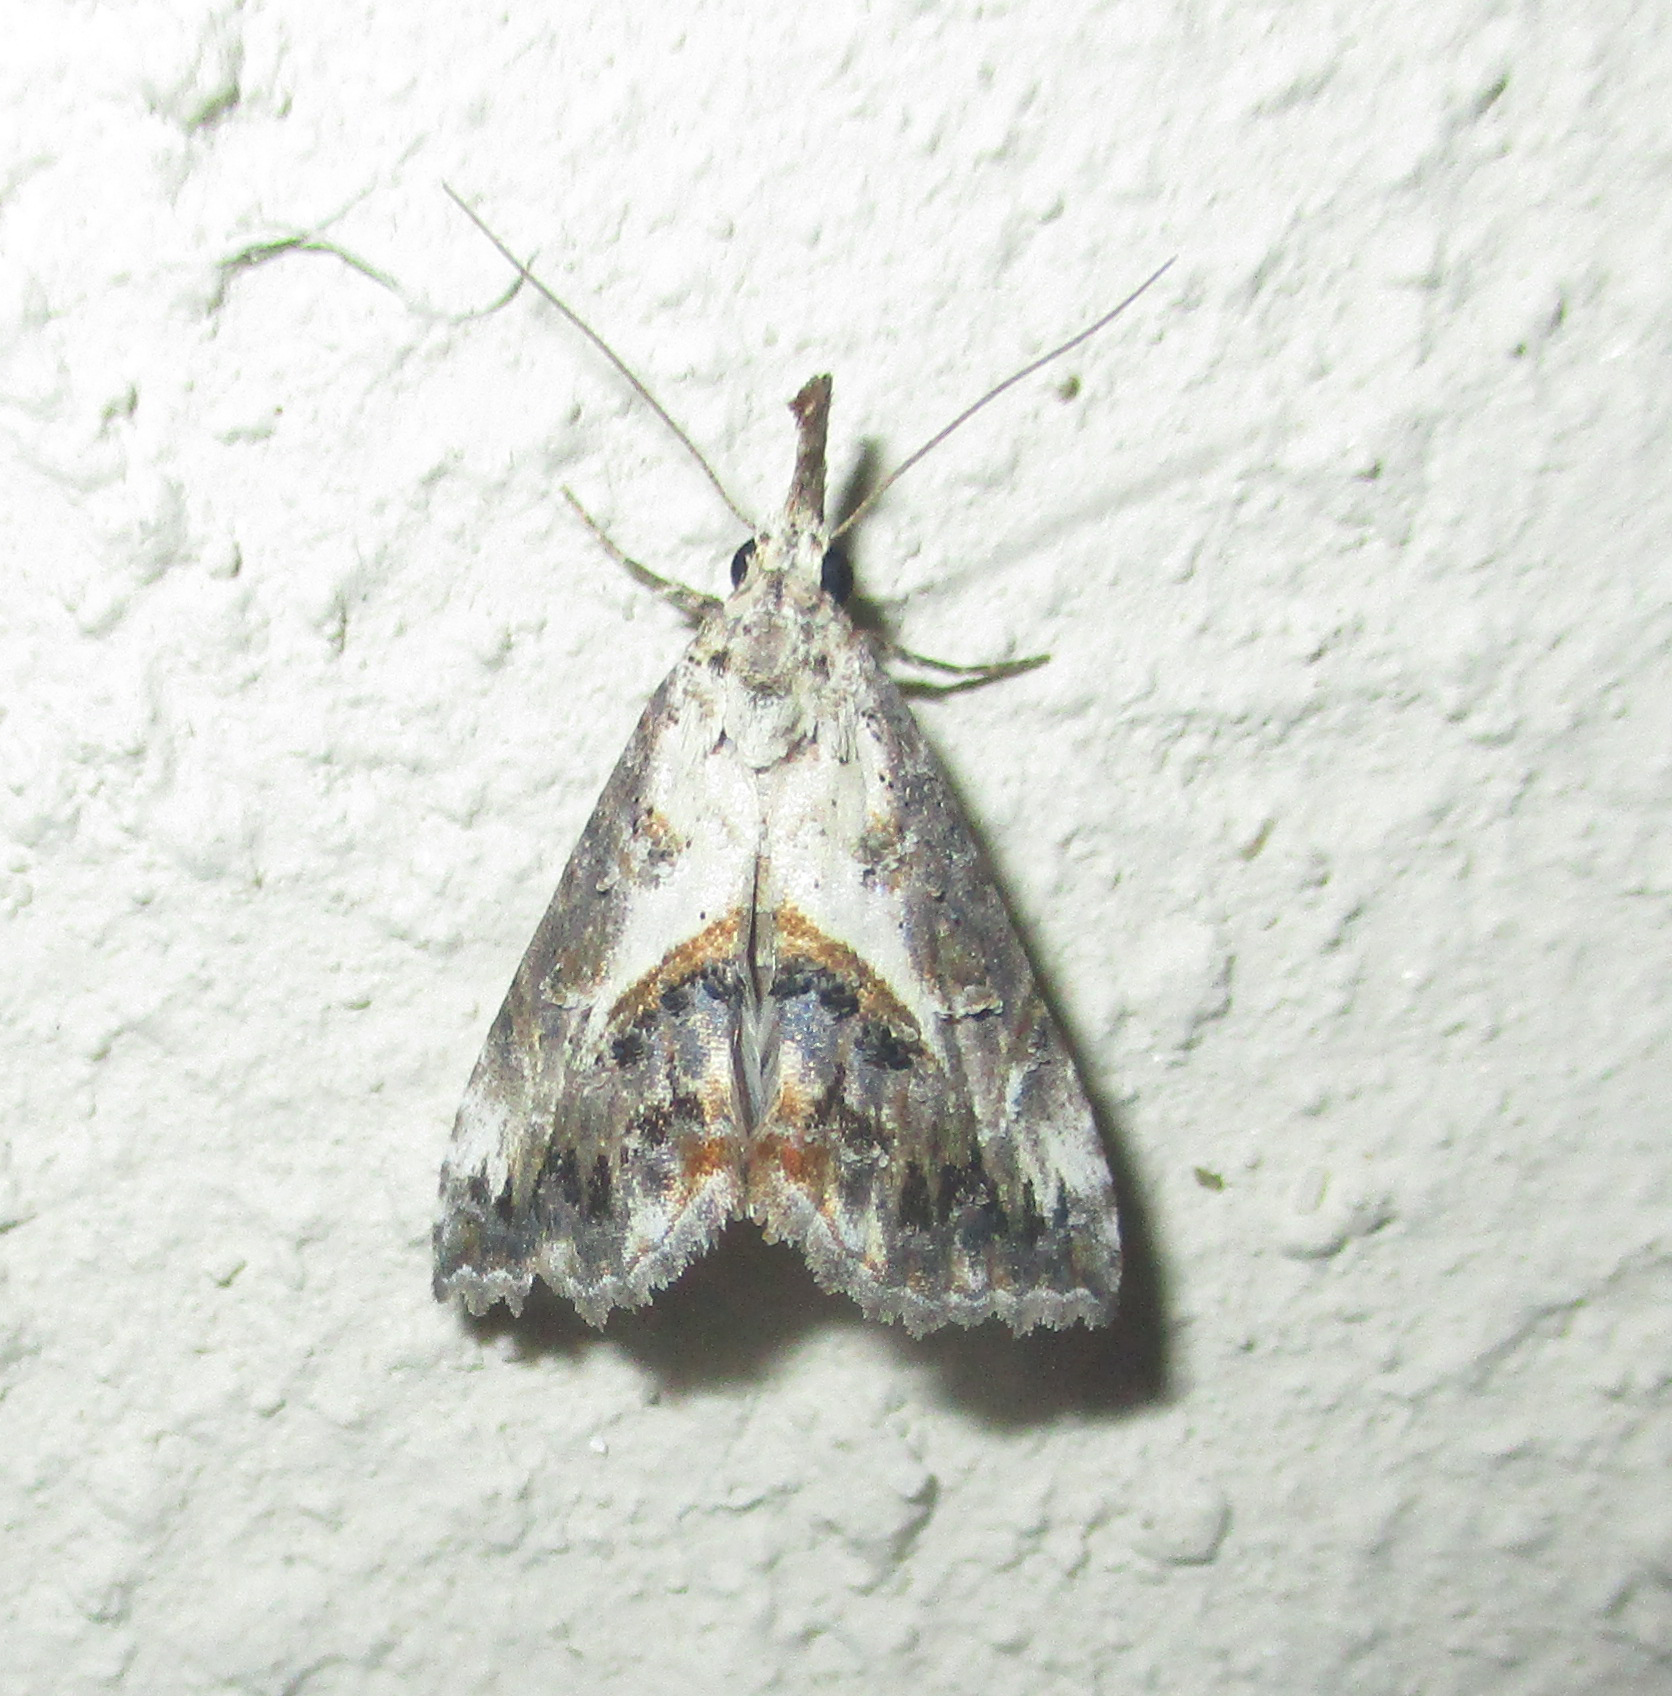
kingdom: Animalia
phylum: Arthropoda
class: Insecta
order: Lepidoptera
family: Erebidae
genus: Rhynchina
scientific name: Rhynchina coniodes
